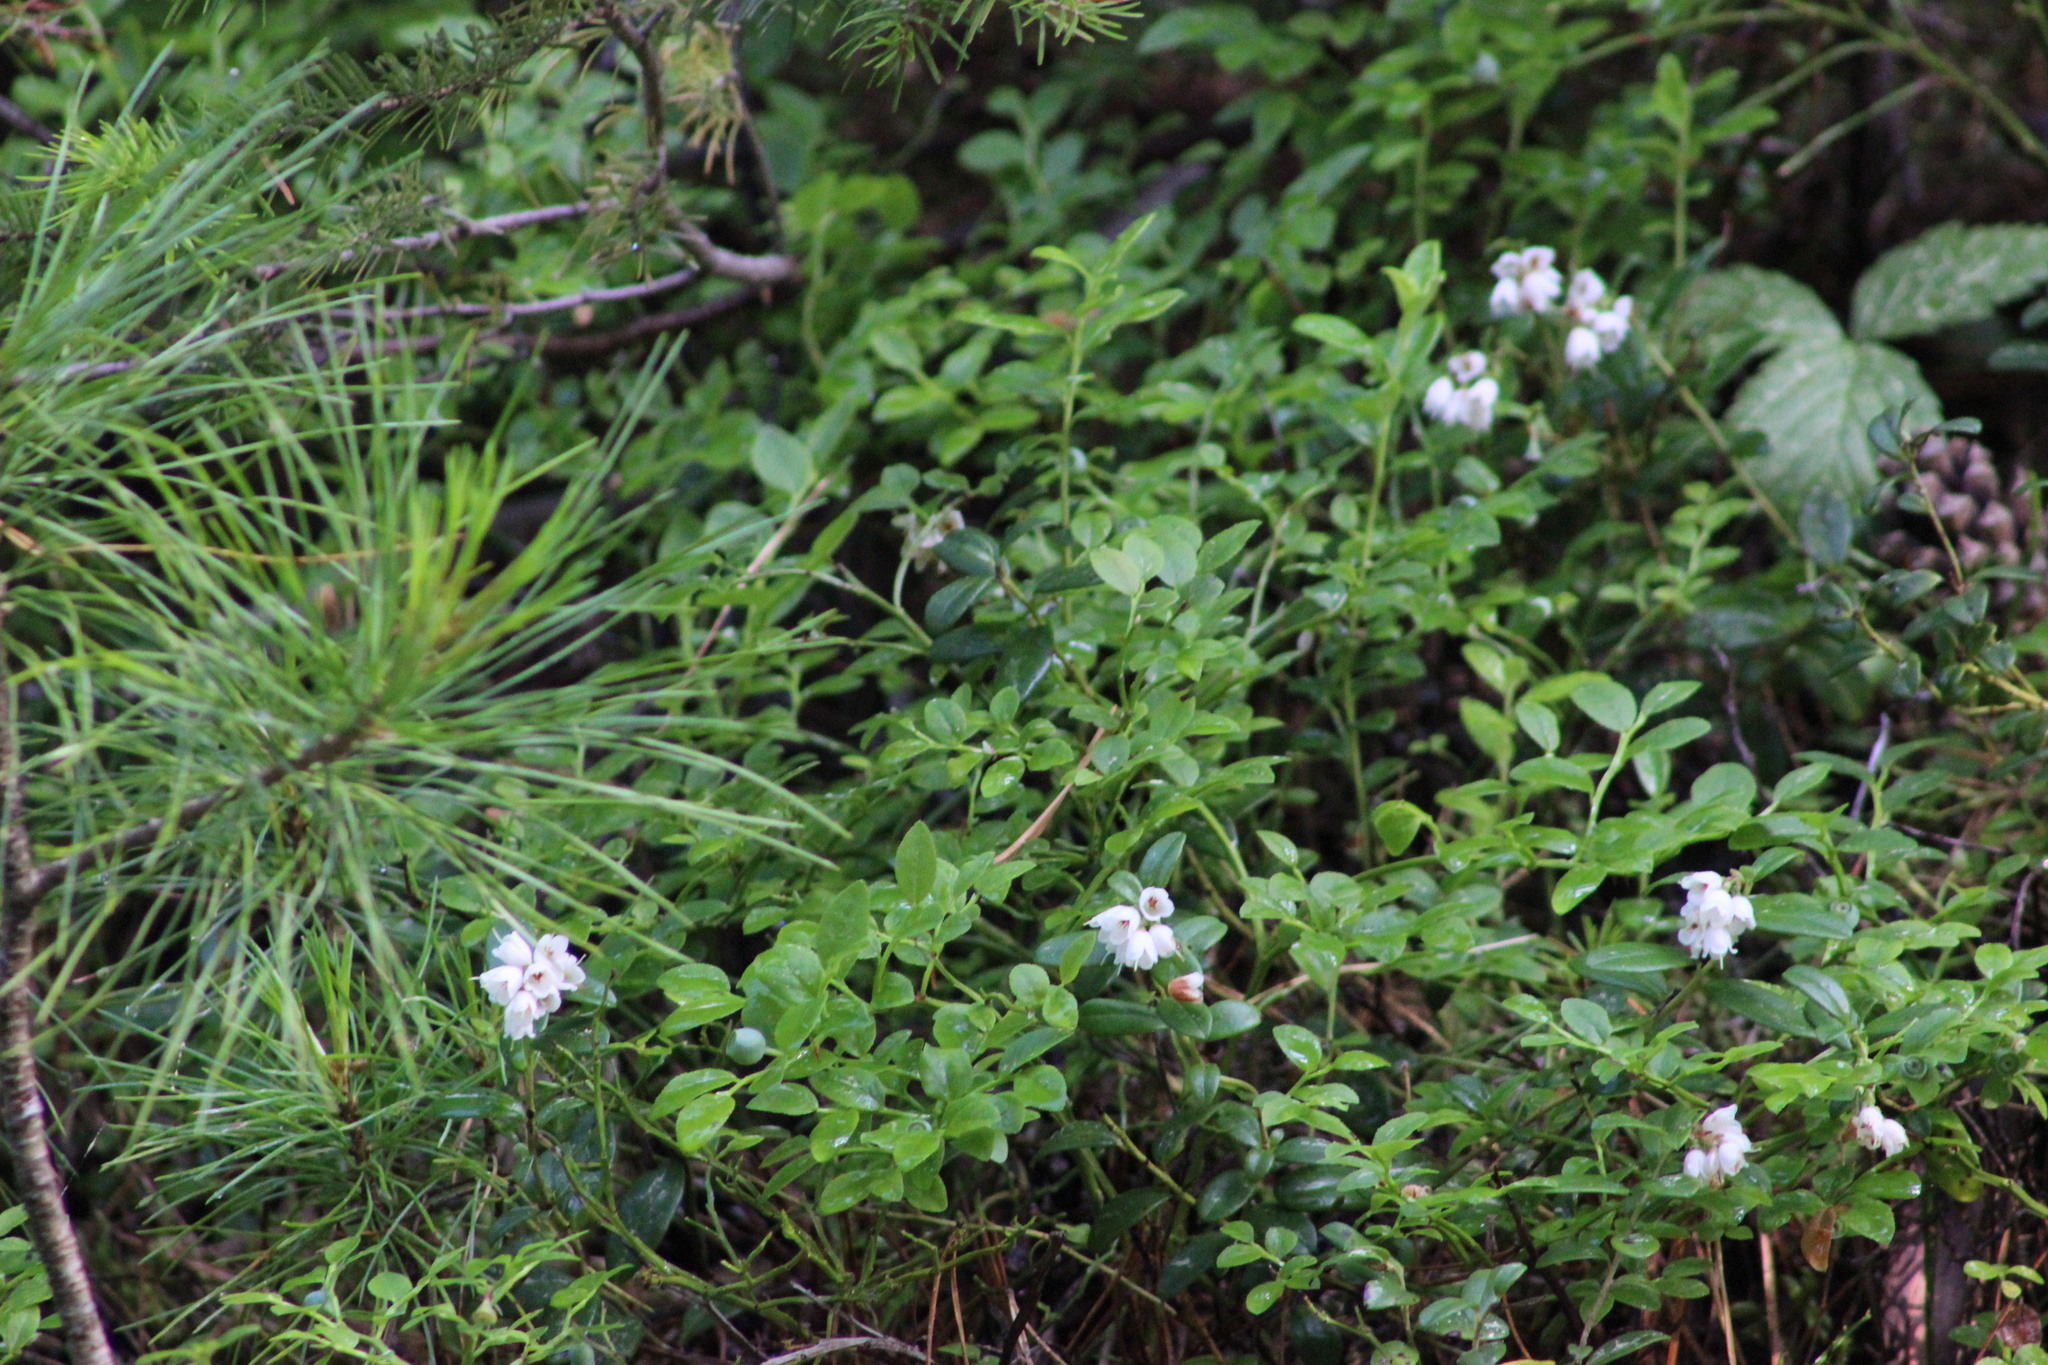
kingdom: Plantae
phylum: Tracheophyta
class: Magnoliopsida
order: Ericales
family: Ericaceae
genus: Vaccinium
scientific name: Vaccinium vitis-idaea
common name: Cowberry
